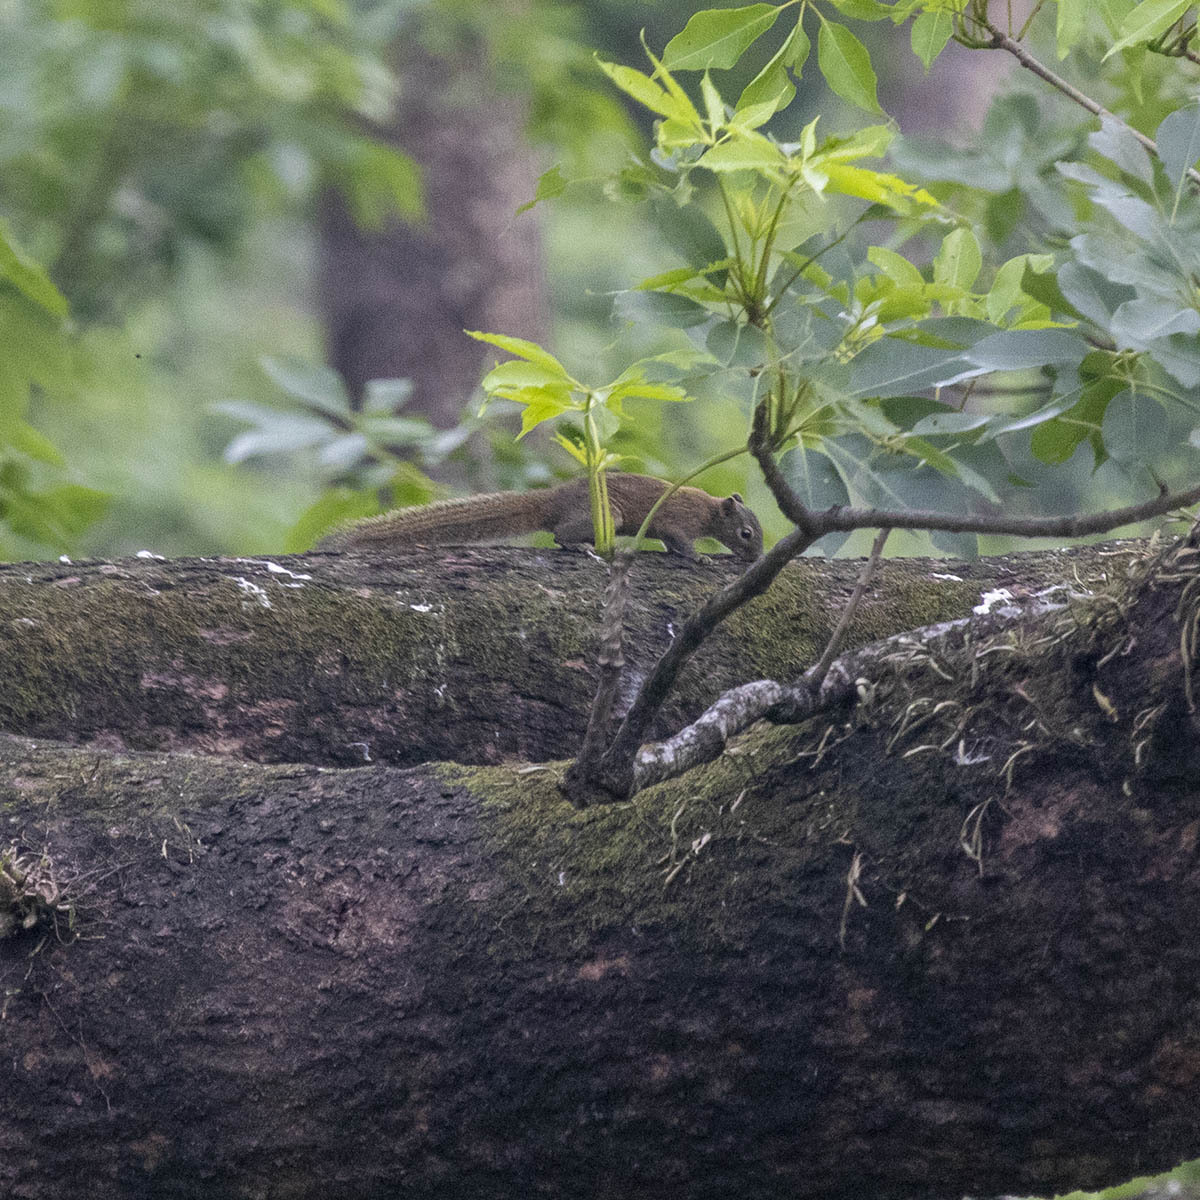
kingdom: Animalia
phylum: Chordata
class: Mammalia
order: Rodentia
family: Sciuridae
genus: Callosciurus
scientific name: Callosciurus pygerythrus
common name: Irrawaddy squirrel
